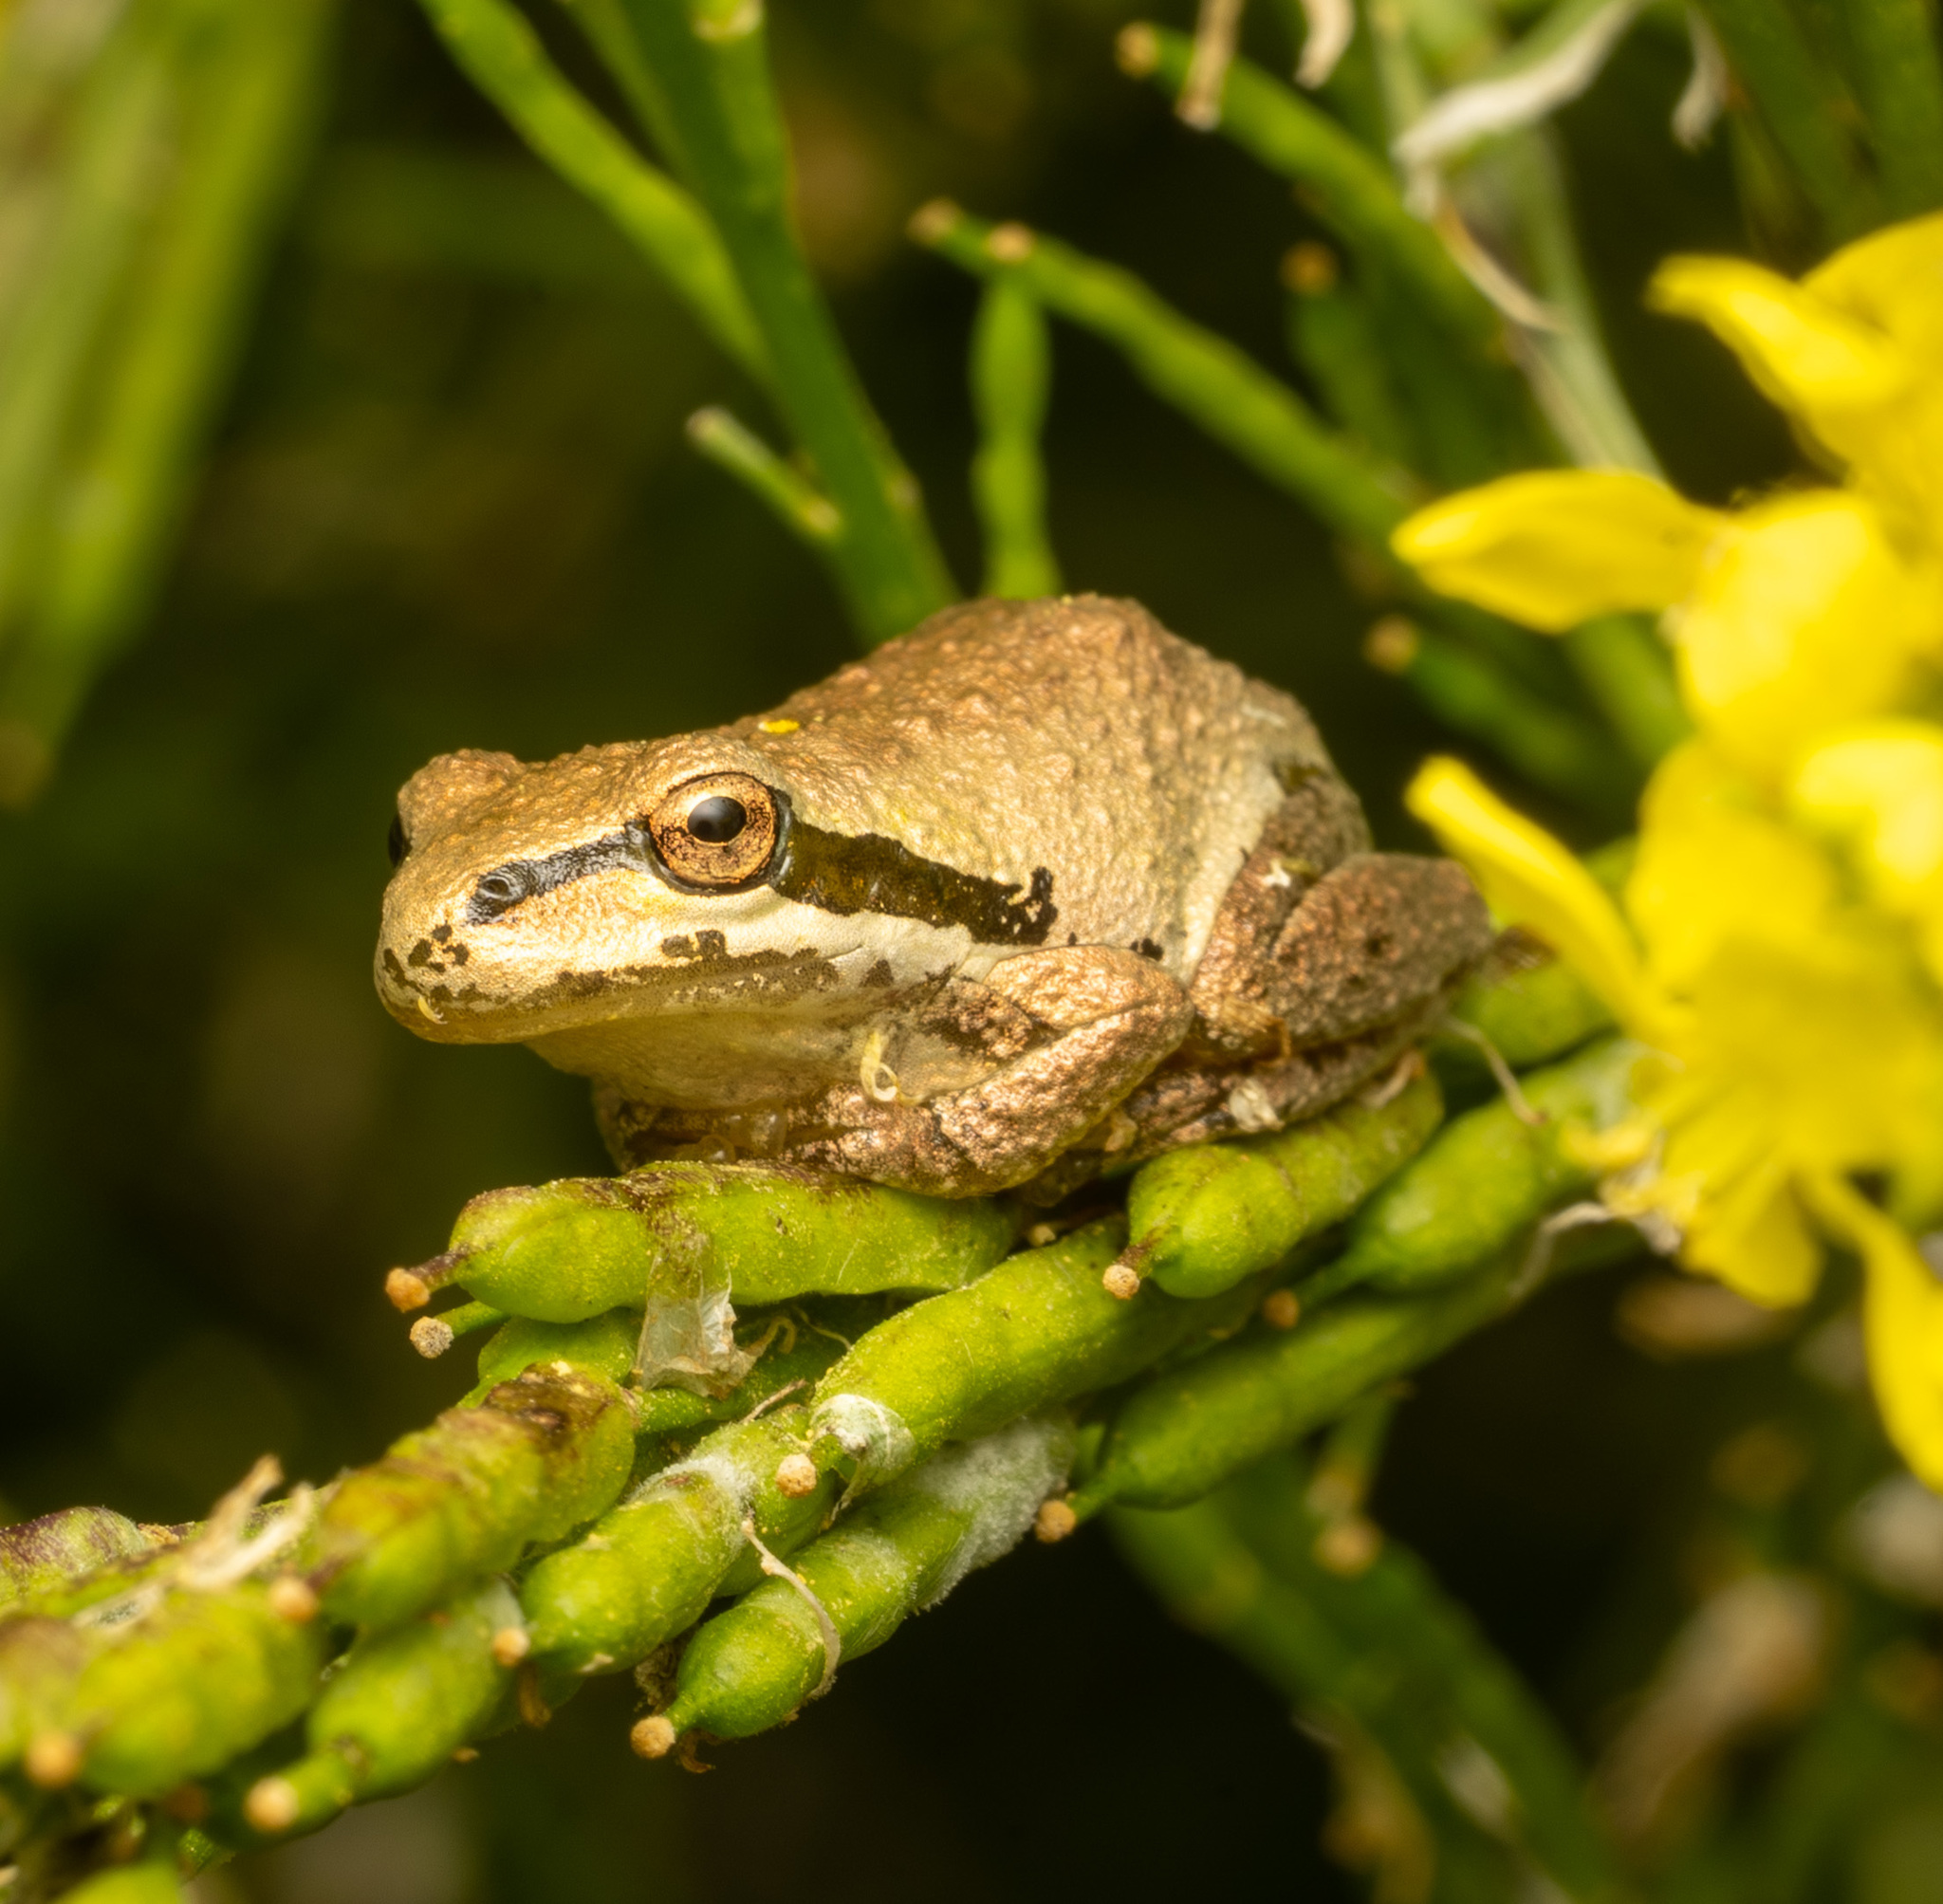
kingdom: Animalia
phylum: Chordata
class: Amphibia
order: Anura
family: Hylidae
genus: Pseudacris
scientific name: Pseudacris regilla
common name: Pacific chorus frog
